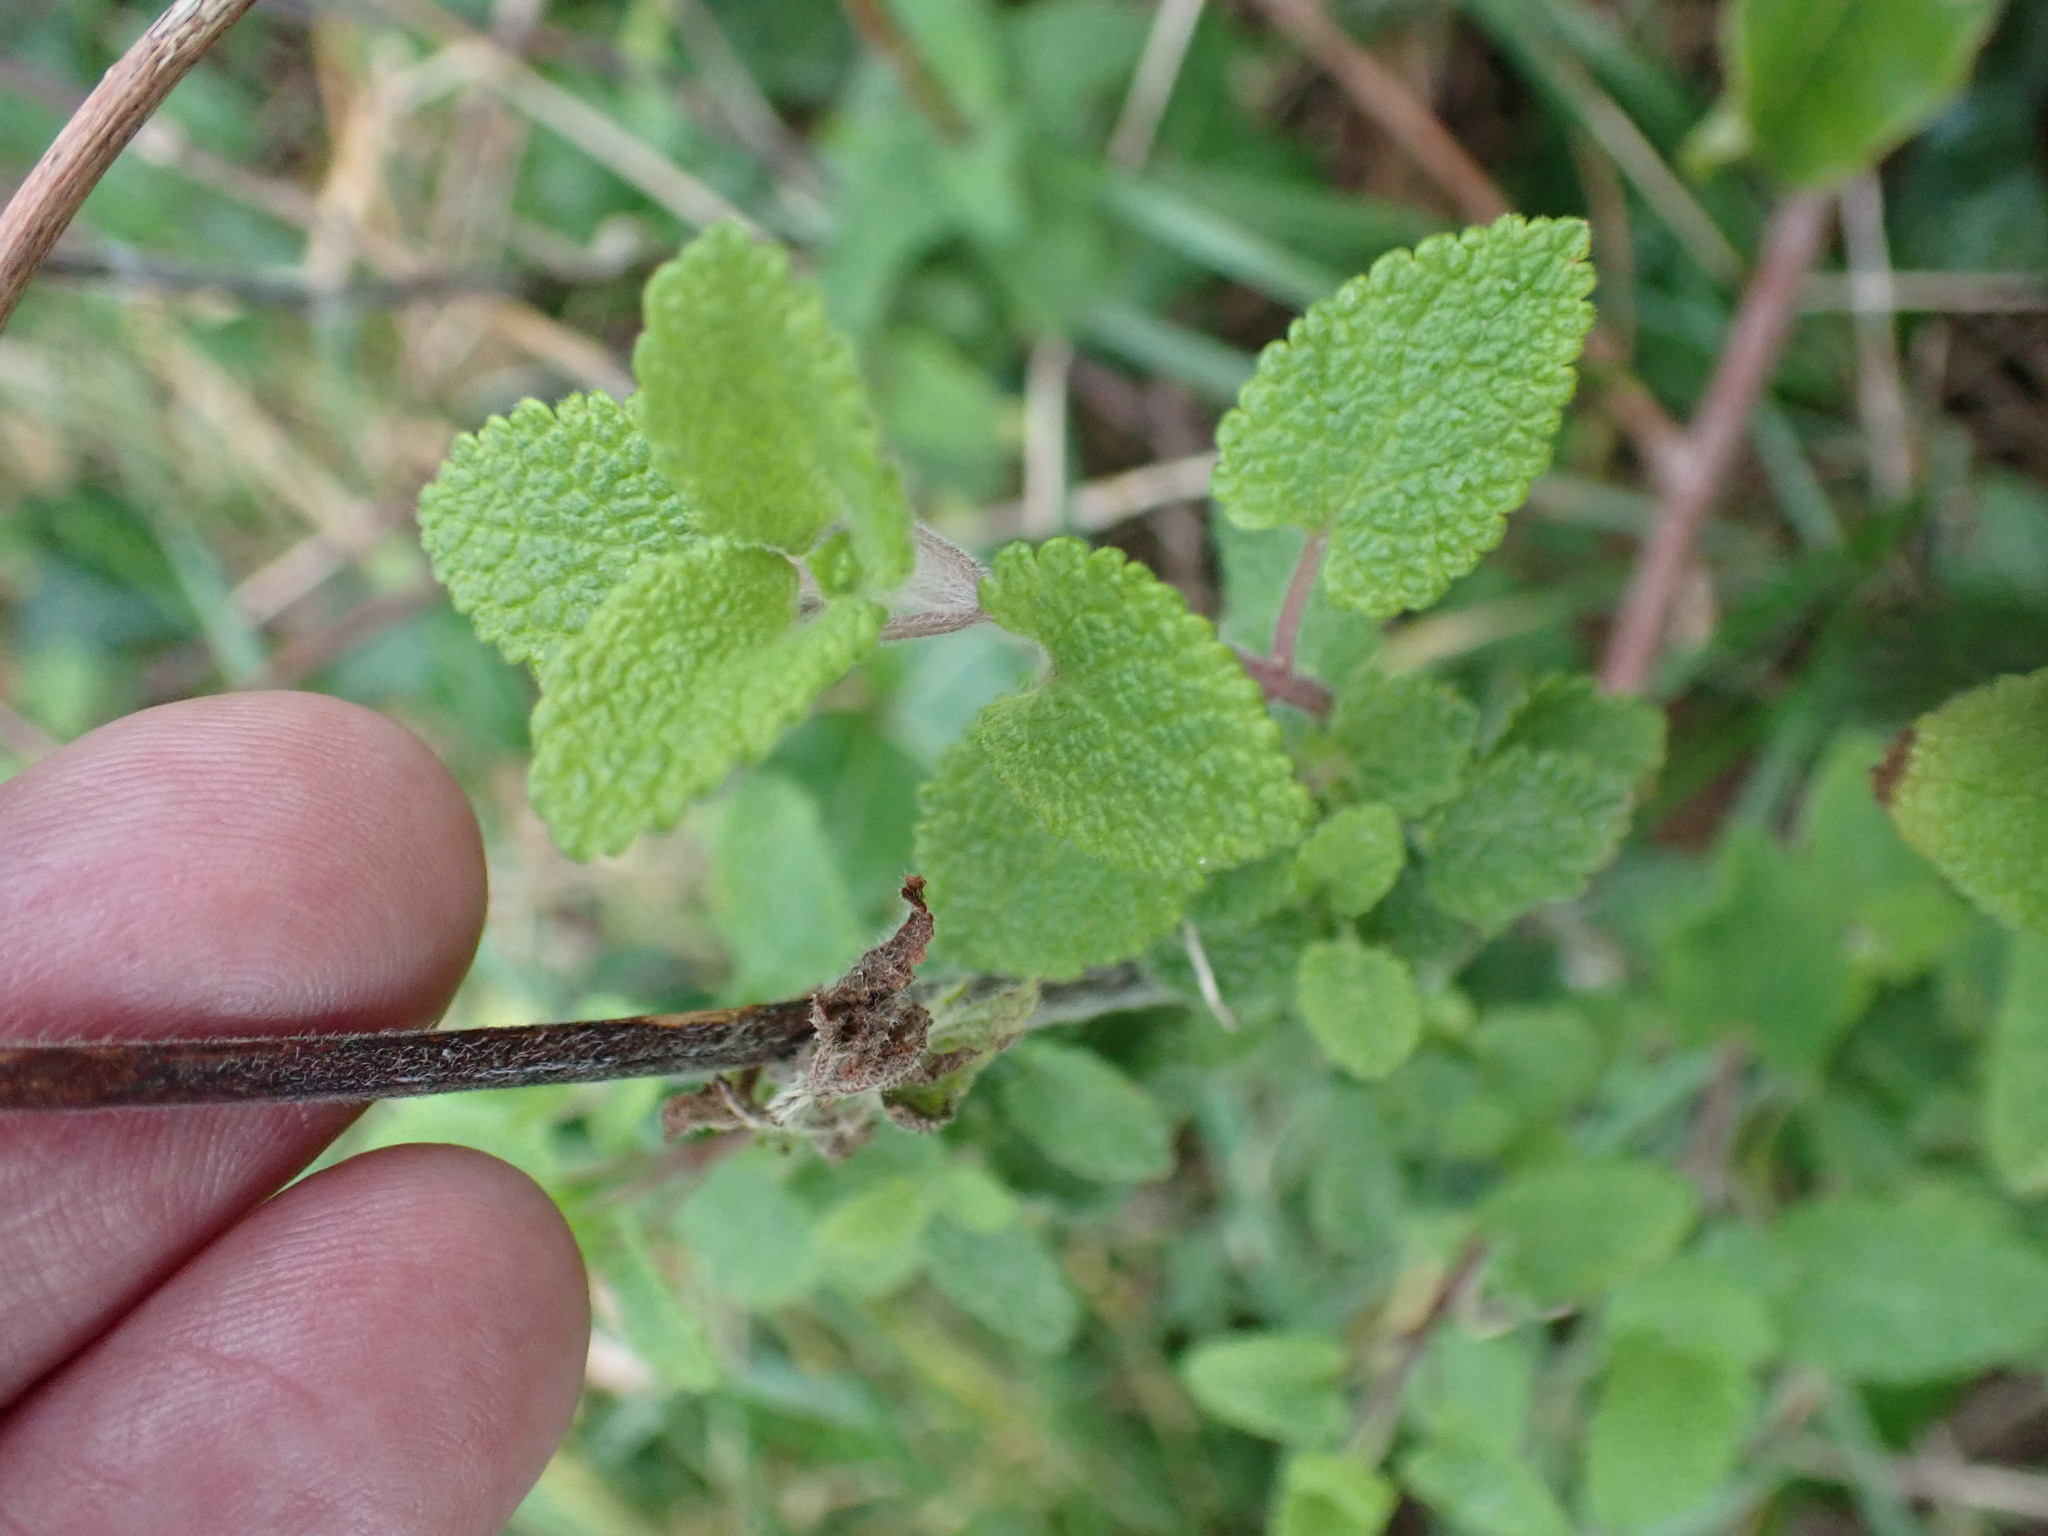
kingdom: Plantae
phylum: Tracheophyta
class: Magnoliopsida
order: Lamiales
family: Lamiaceae
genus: Teucrium
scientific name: Teucrium scorodonia
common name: Woodland germander
